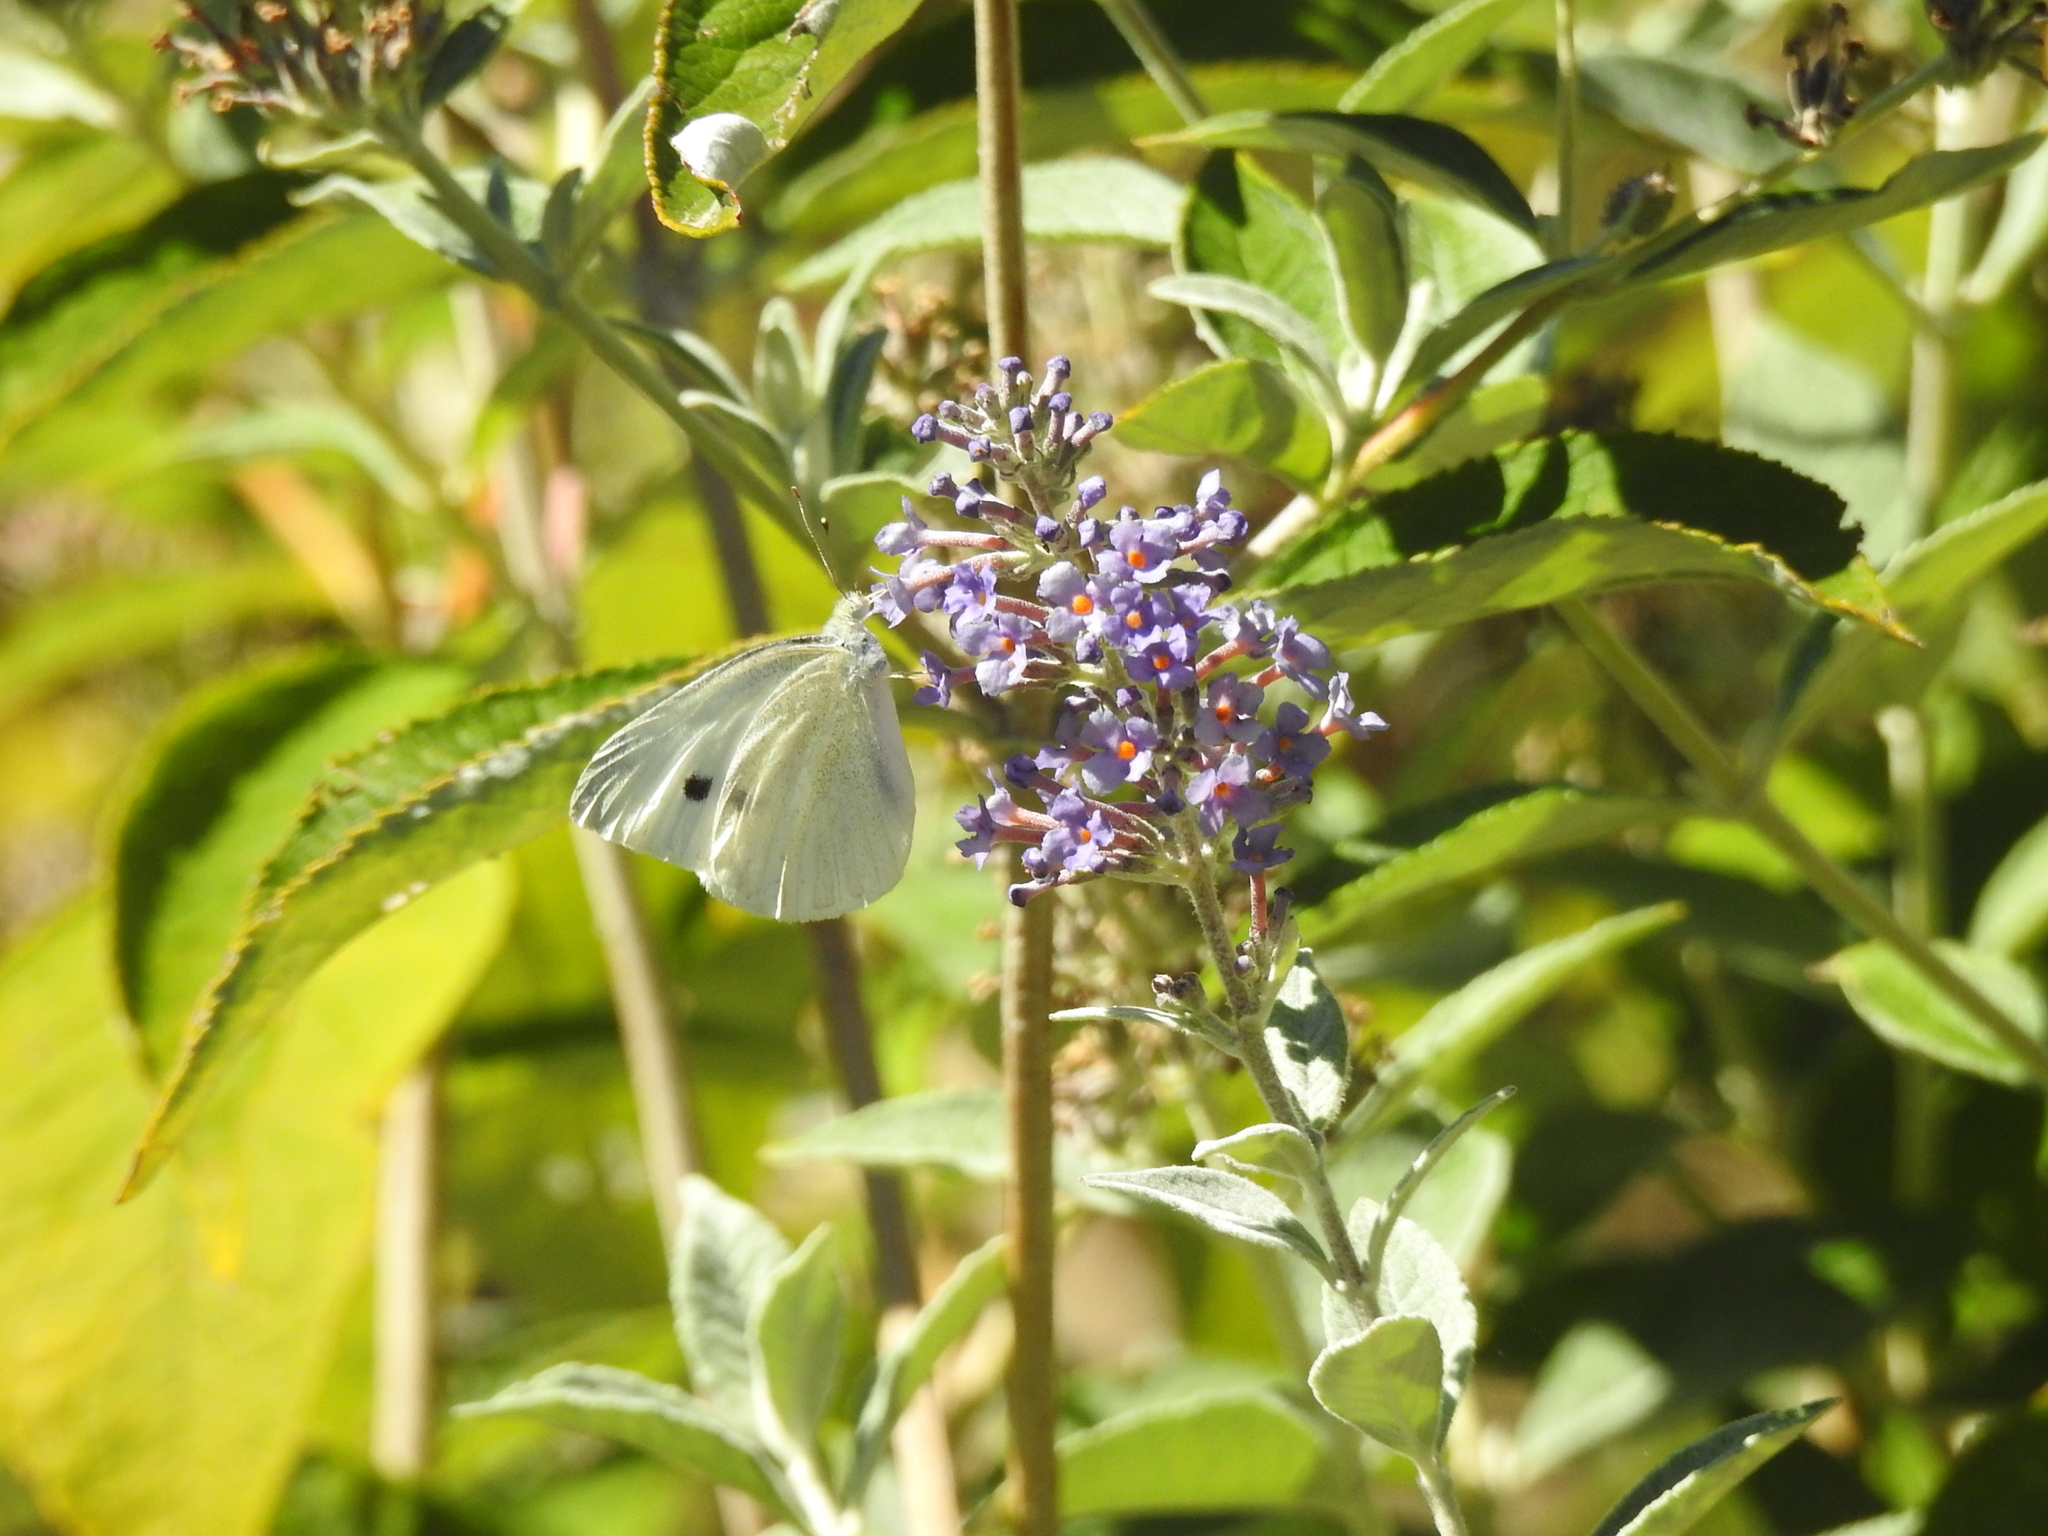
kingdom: Animalia
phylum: Arthropoda
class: Insecta
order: Lepidoptera
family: Pieridae
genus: Pieris
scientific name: Pieris rapae
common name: Small white
